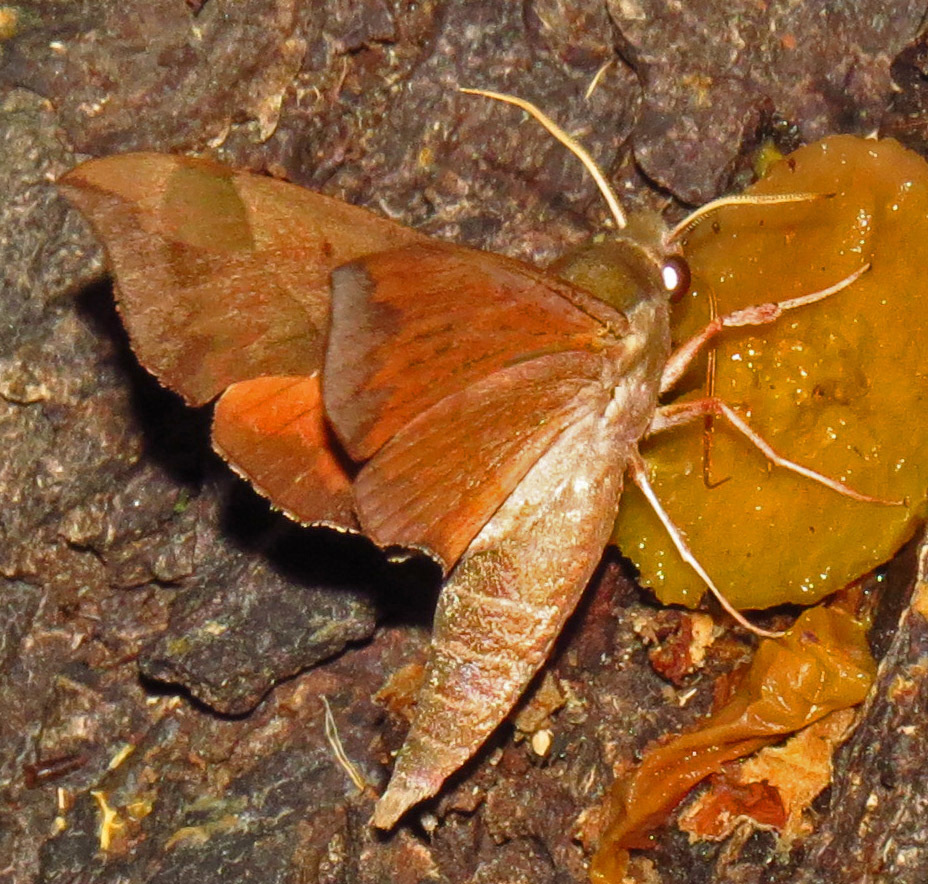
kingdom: Animalia
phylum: Arthropoda
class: Insecta
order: Lepidoptera
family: Sphingidae
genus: Darapsa
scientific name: Darapsa myron
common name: Hog sphinx
